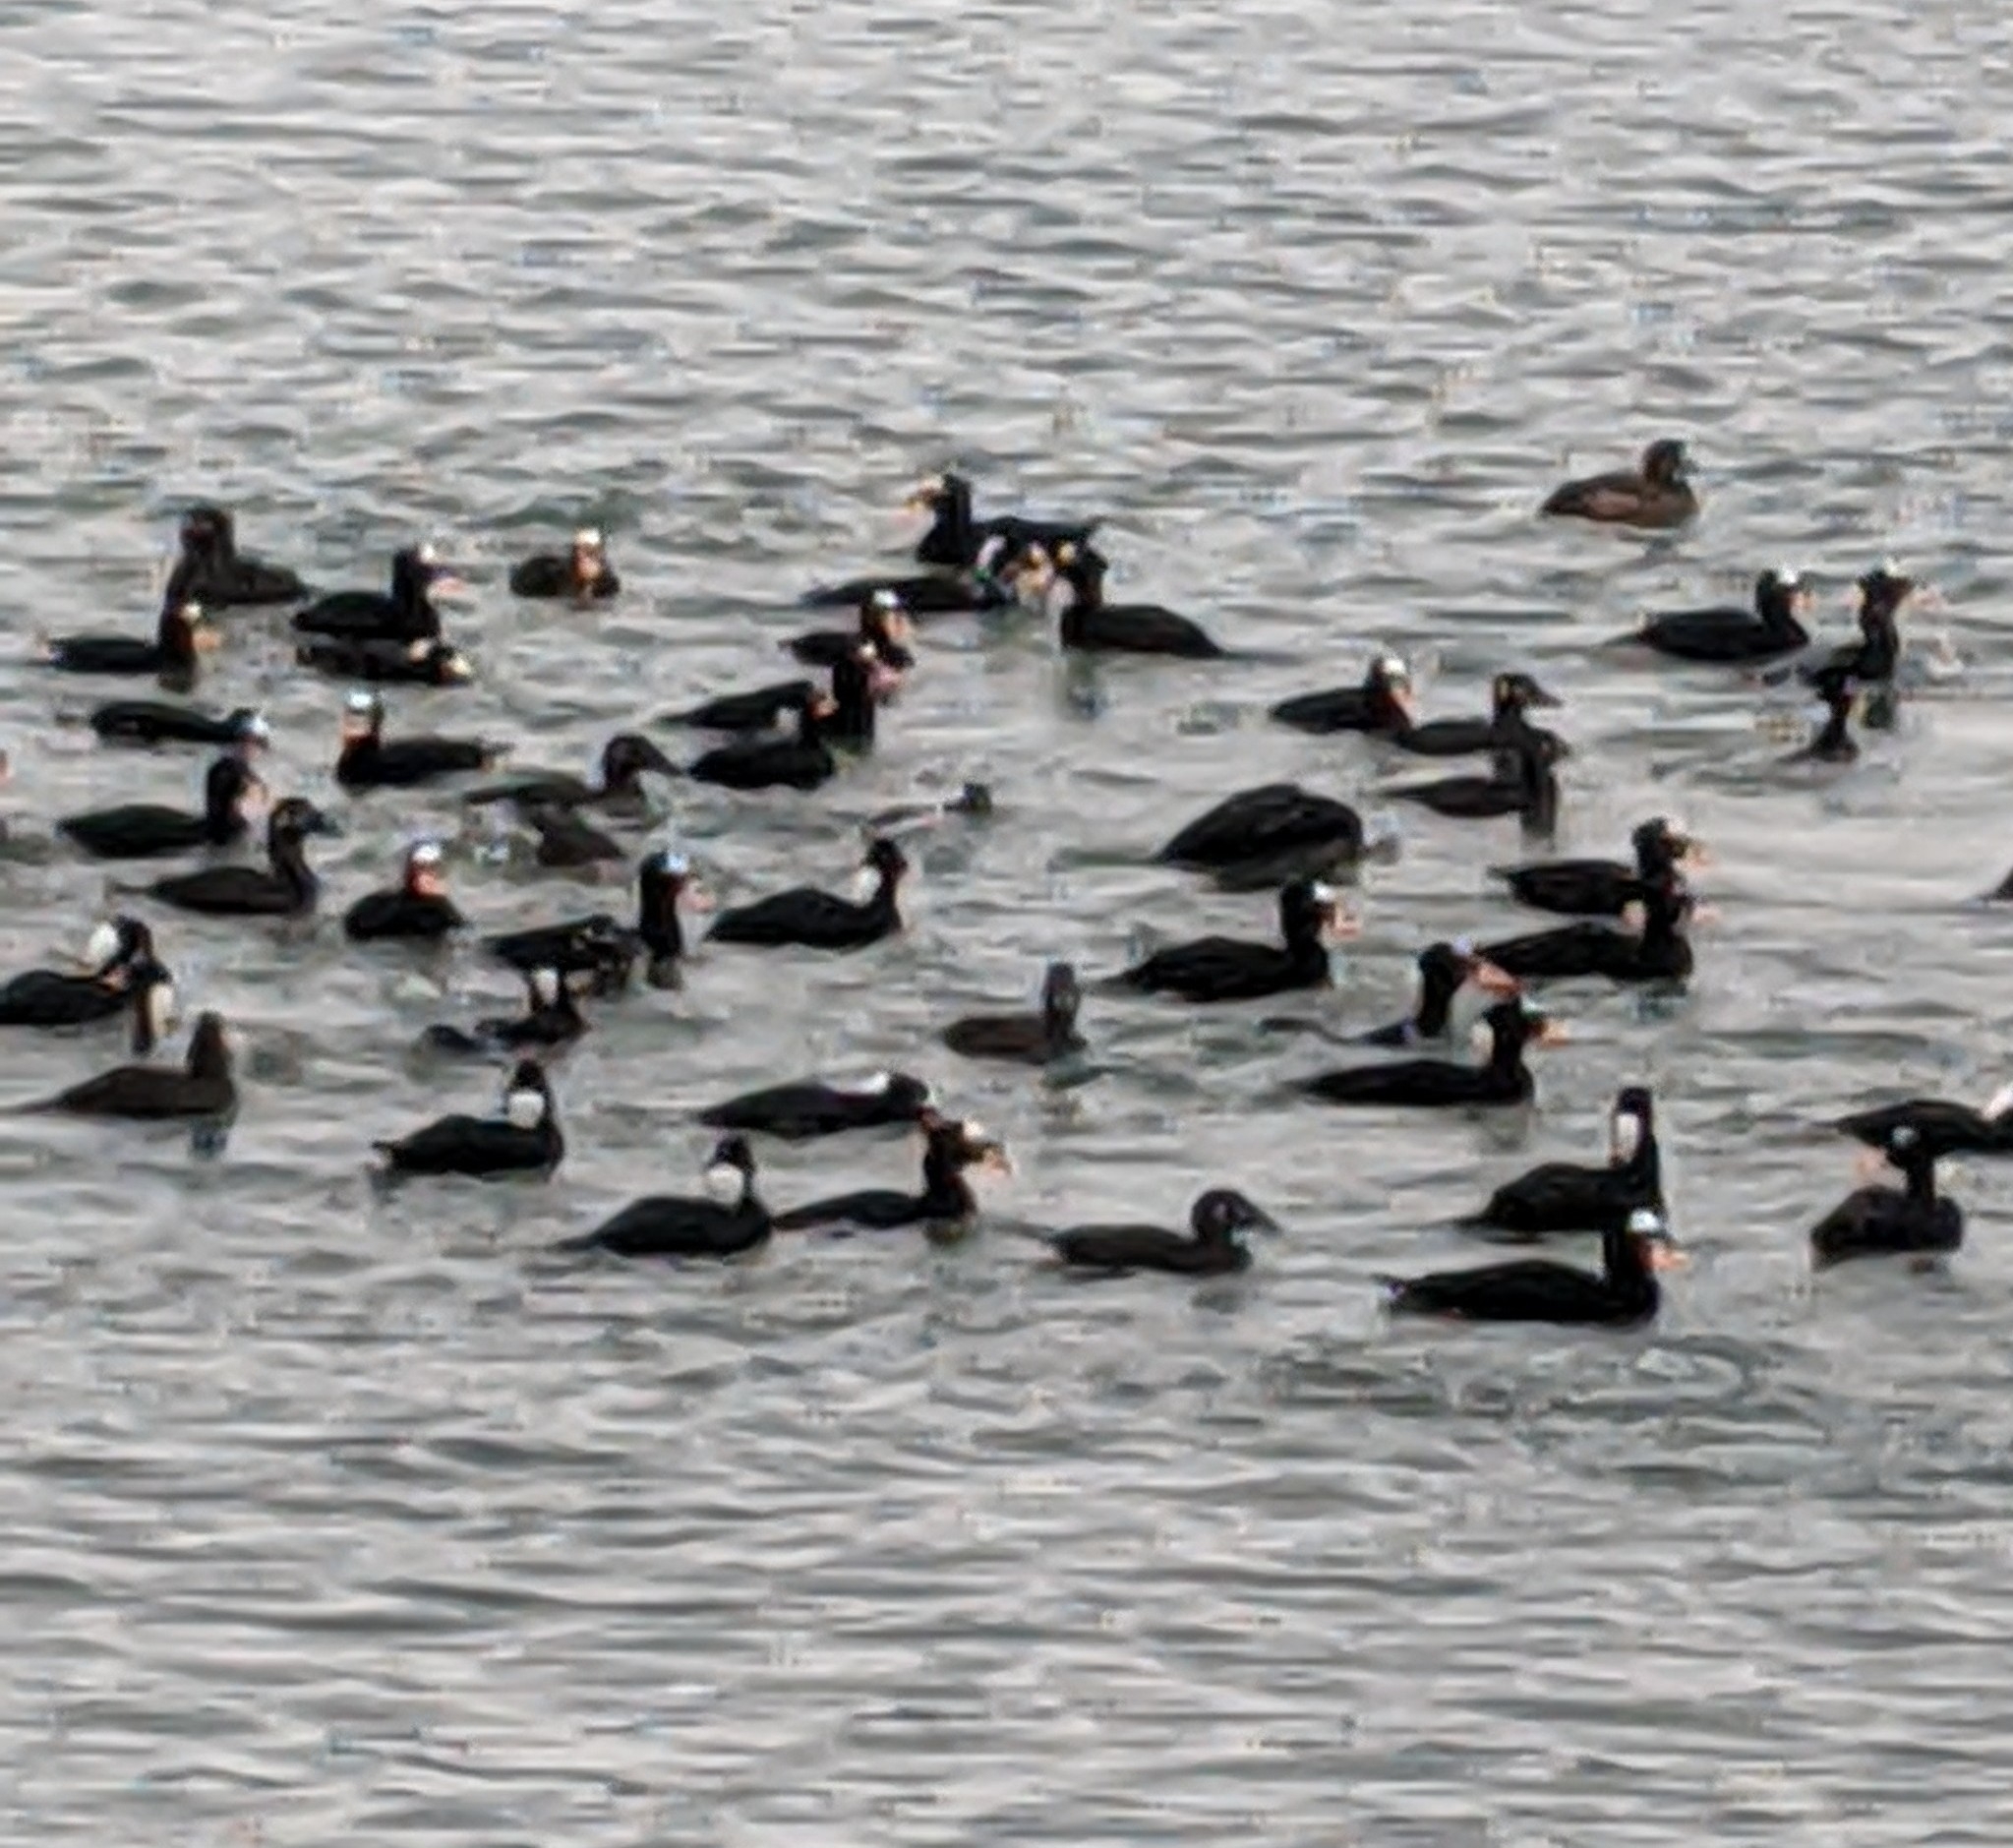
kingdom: Animalia
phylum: Chordata
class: Aves
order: Anseriformes
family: Anatidae
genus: Melanitta
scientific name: Melanitta perspicillata
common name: Surf scoter
